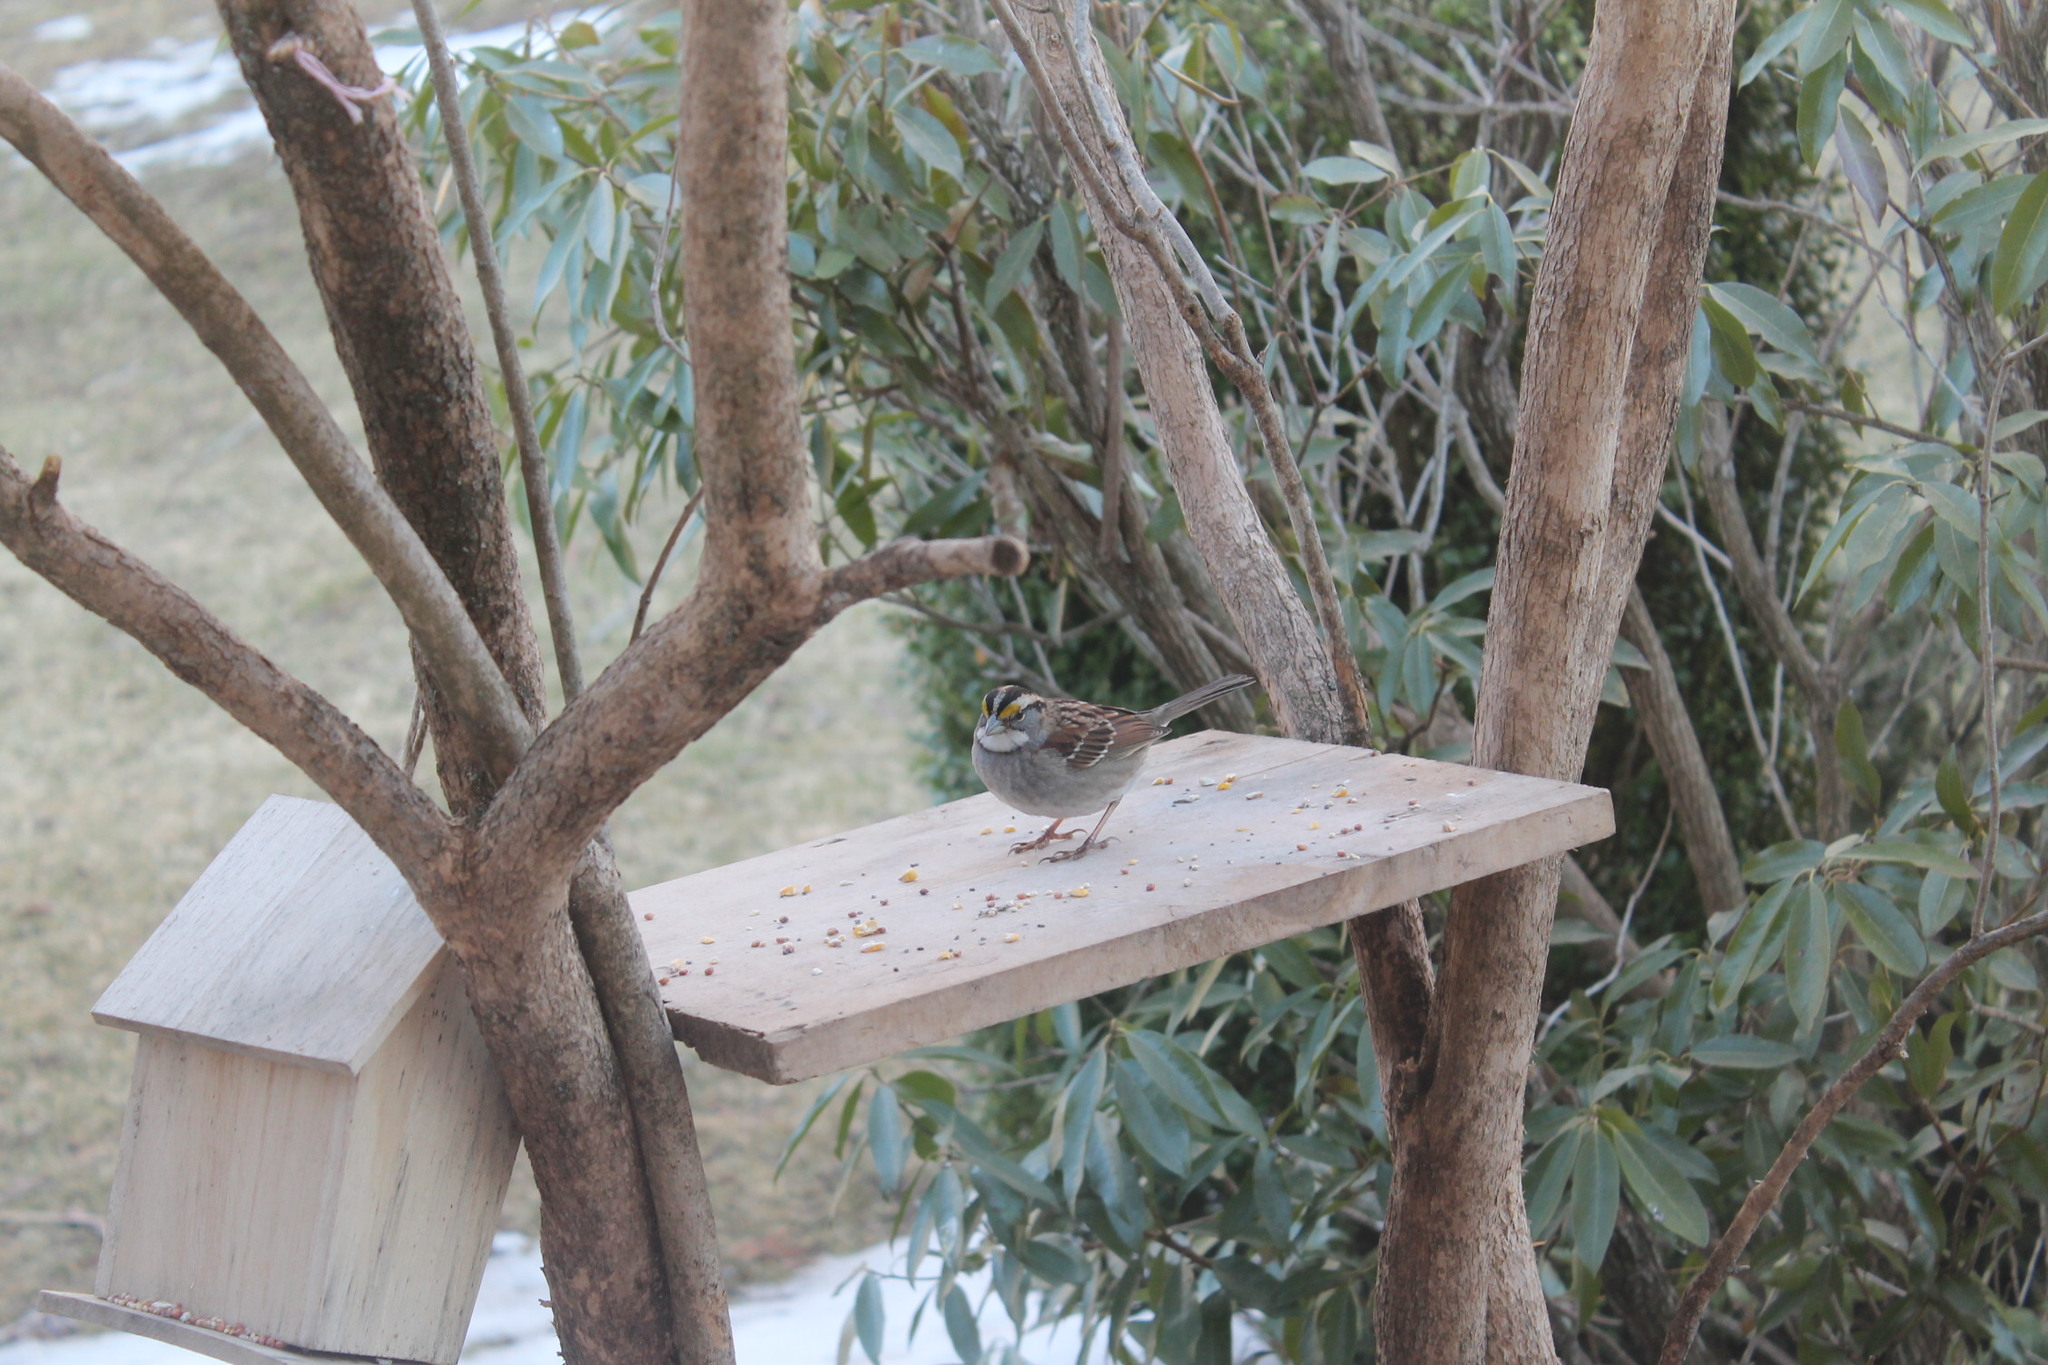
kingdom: Animalia
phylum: Chordata
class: Aves
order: Passeriformes
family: Passerellidae
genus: Zonotrichia
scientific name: Zonotrichia albicollis
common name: White-throated sparrow
